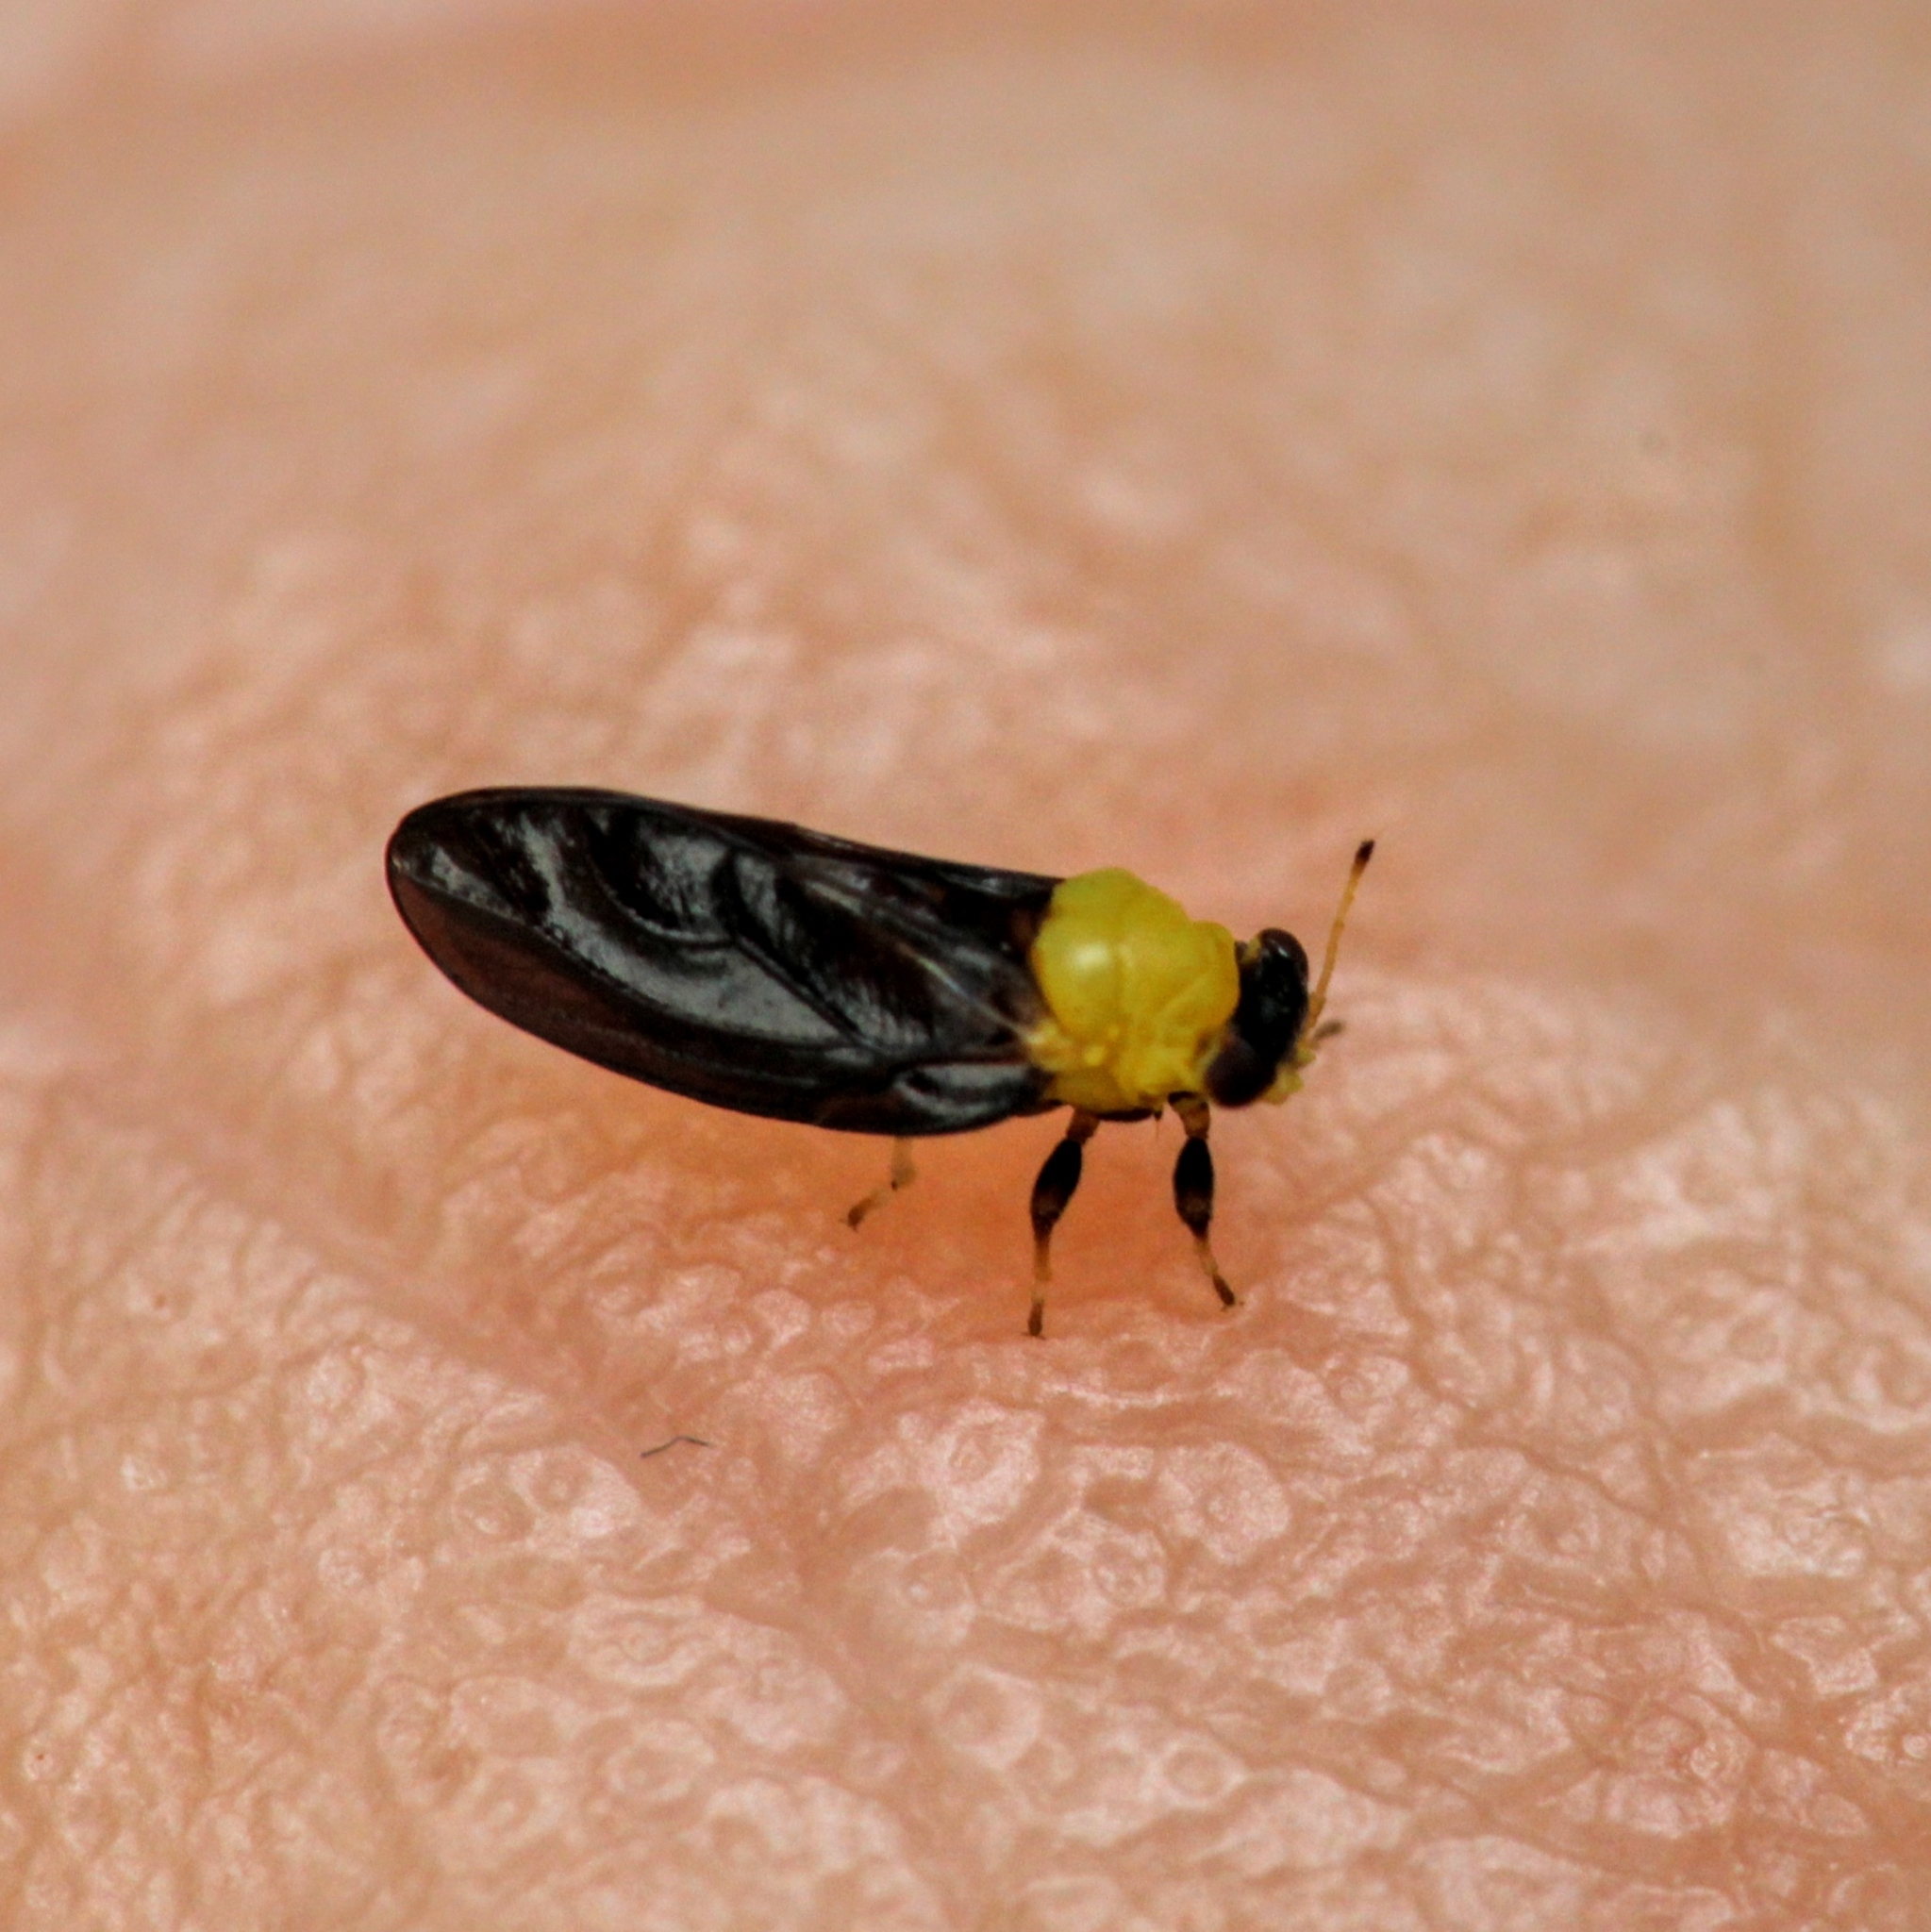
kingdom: Animalia
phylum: Arthropoda
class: Insecta
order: Hemiptera
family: Calophyidae
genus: Calophya
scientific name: Calophya nigripennis
